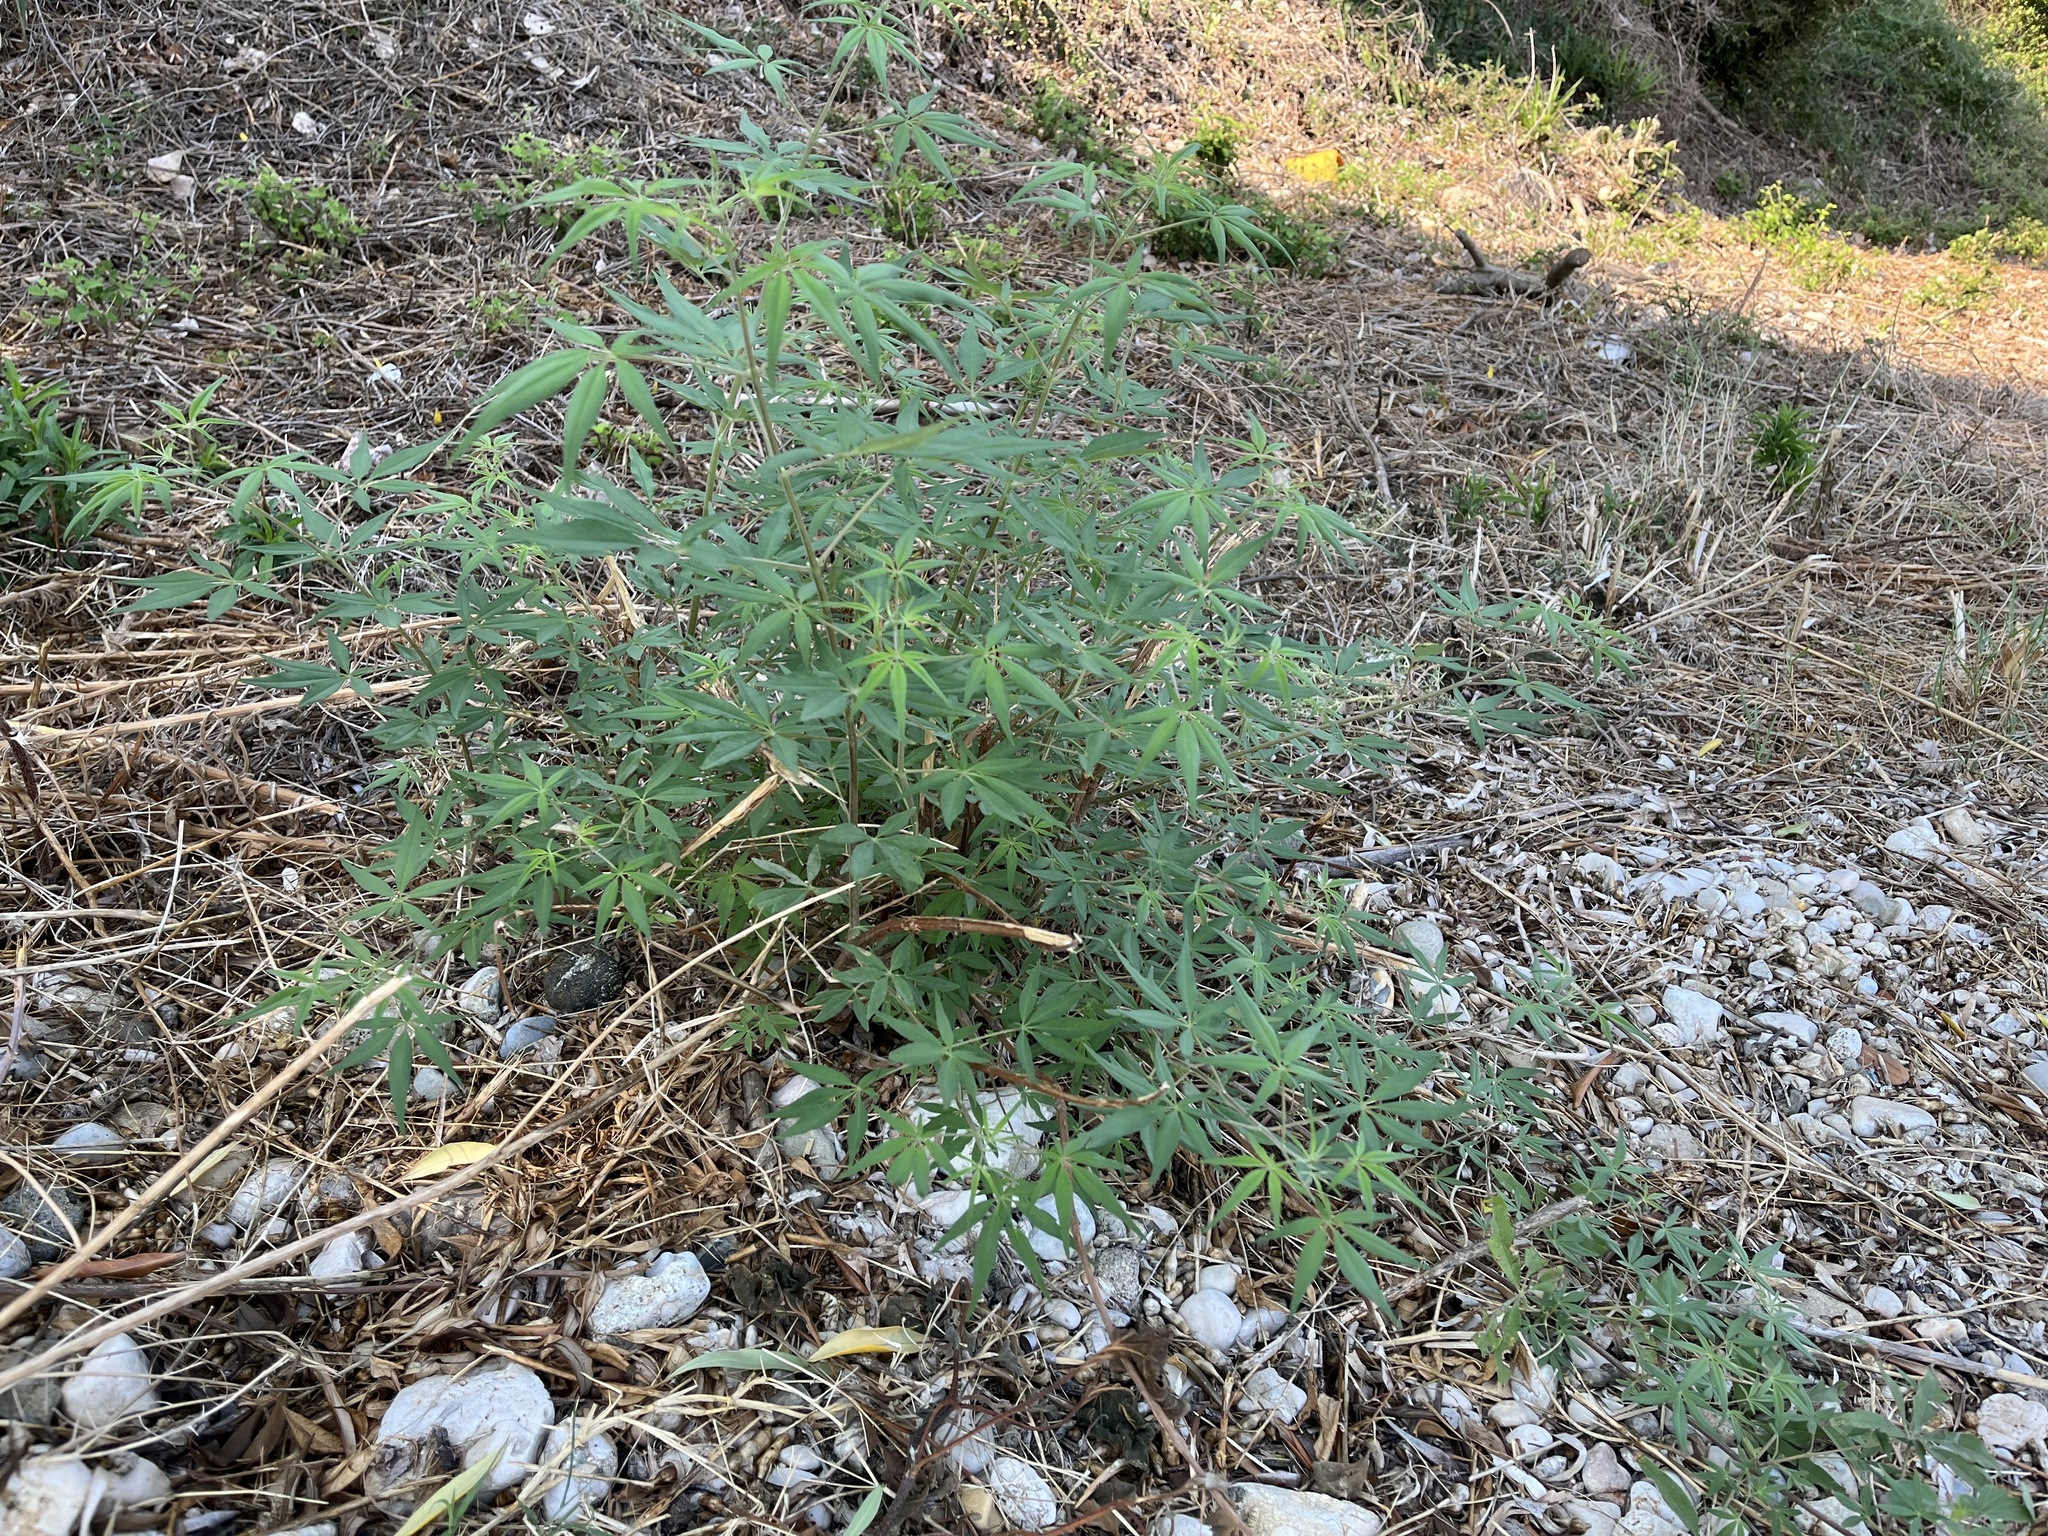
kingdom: Plantae
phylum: Tracheophyta
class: Magnoliopsida
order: Lamiales
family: Lamiaceae
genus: Vitex
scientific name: Vitex agnus-castus
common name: Chasteberry
